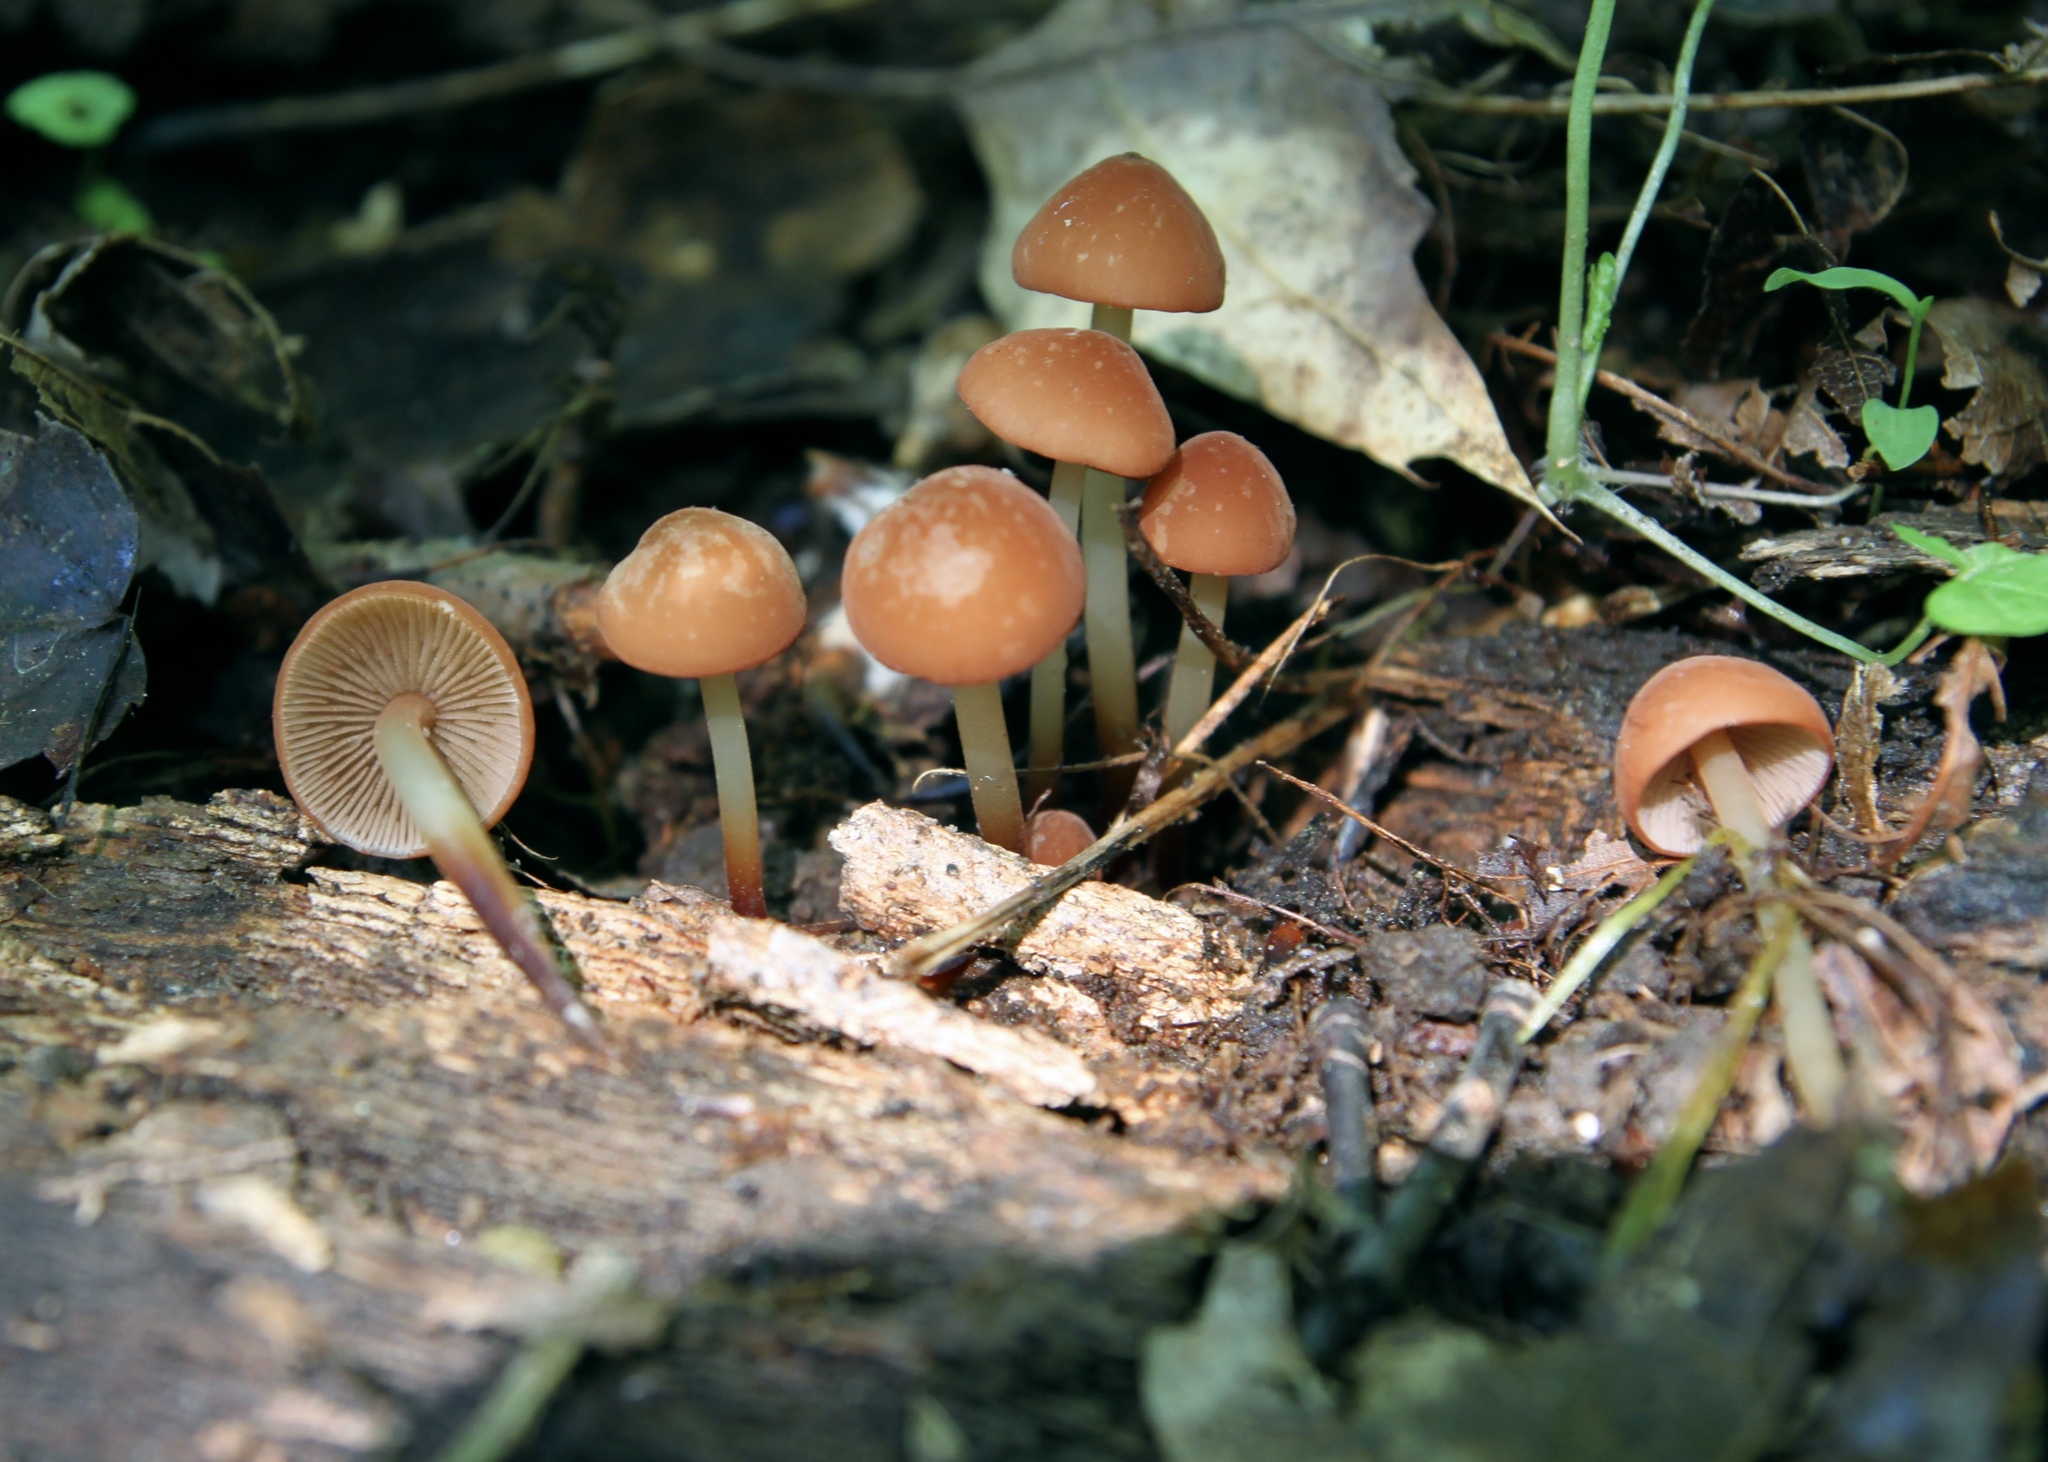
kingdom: Fungi
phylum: Basidiomycota
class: Agaricomycetes
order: Agaricales
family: Omphalotaceae
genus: Gymnopus
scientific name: Gymnopus lachnophyllus
